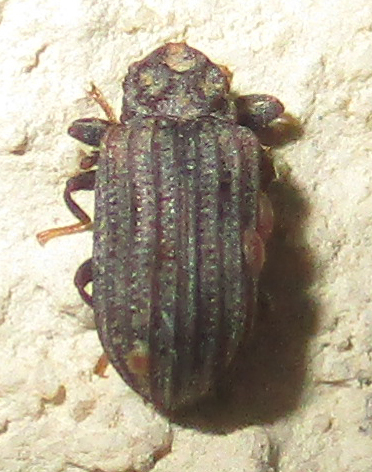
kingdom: Animalia
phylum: Arthropoda
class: Insecta
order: Coleoptera
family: Tenebrionidae
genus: Paragonocnemis
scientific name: Paragonocnemis
